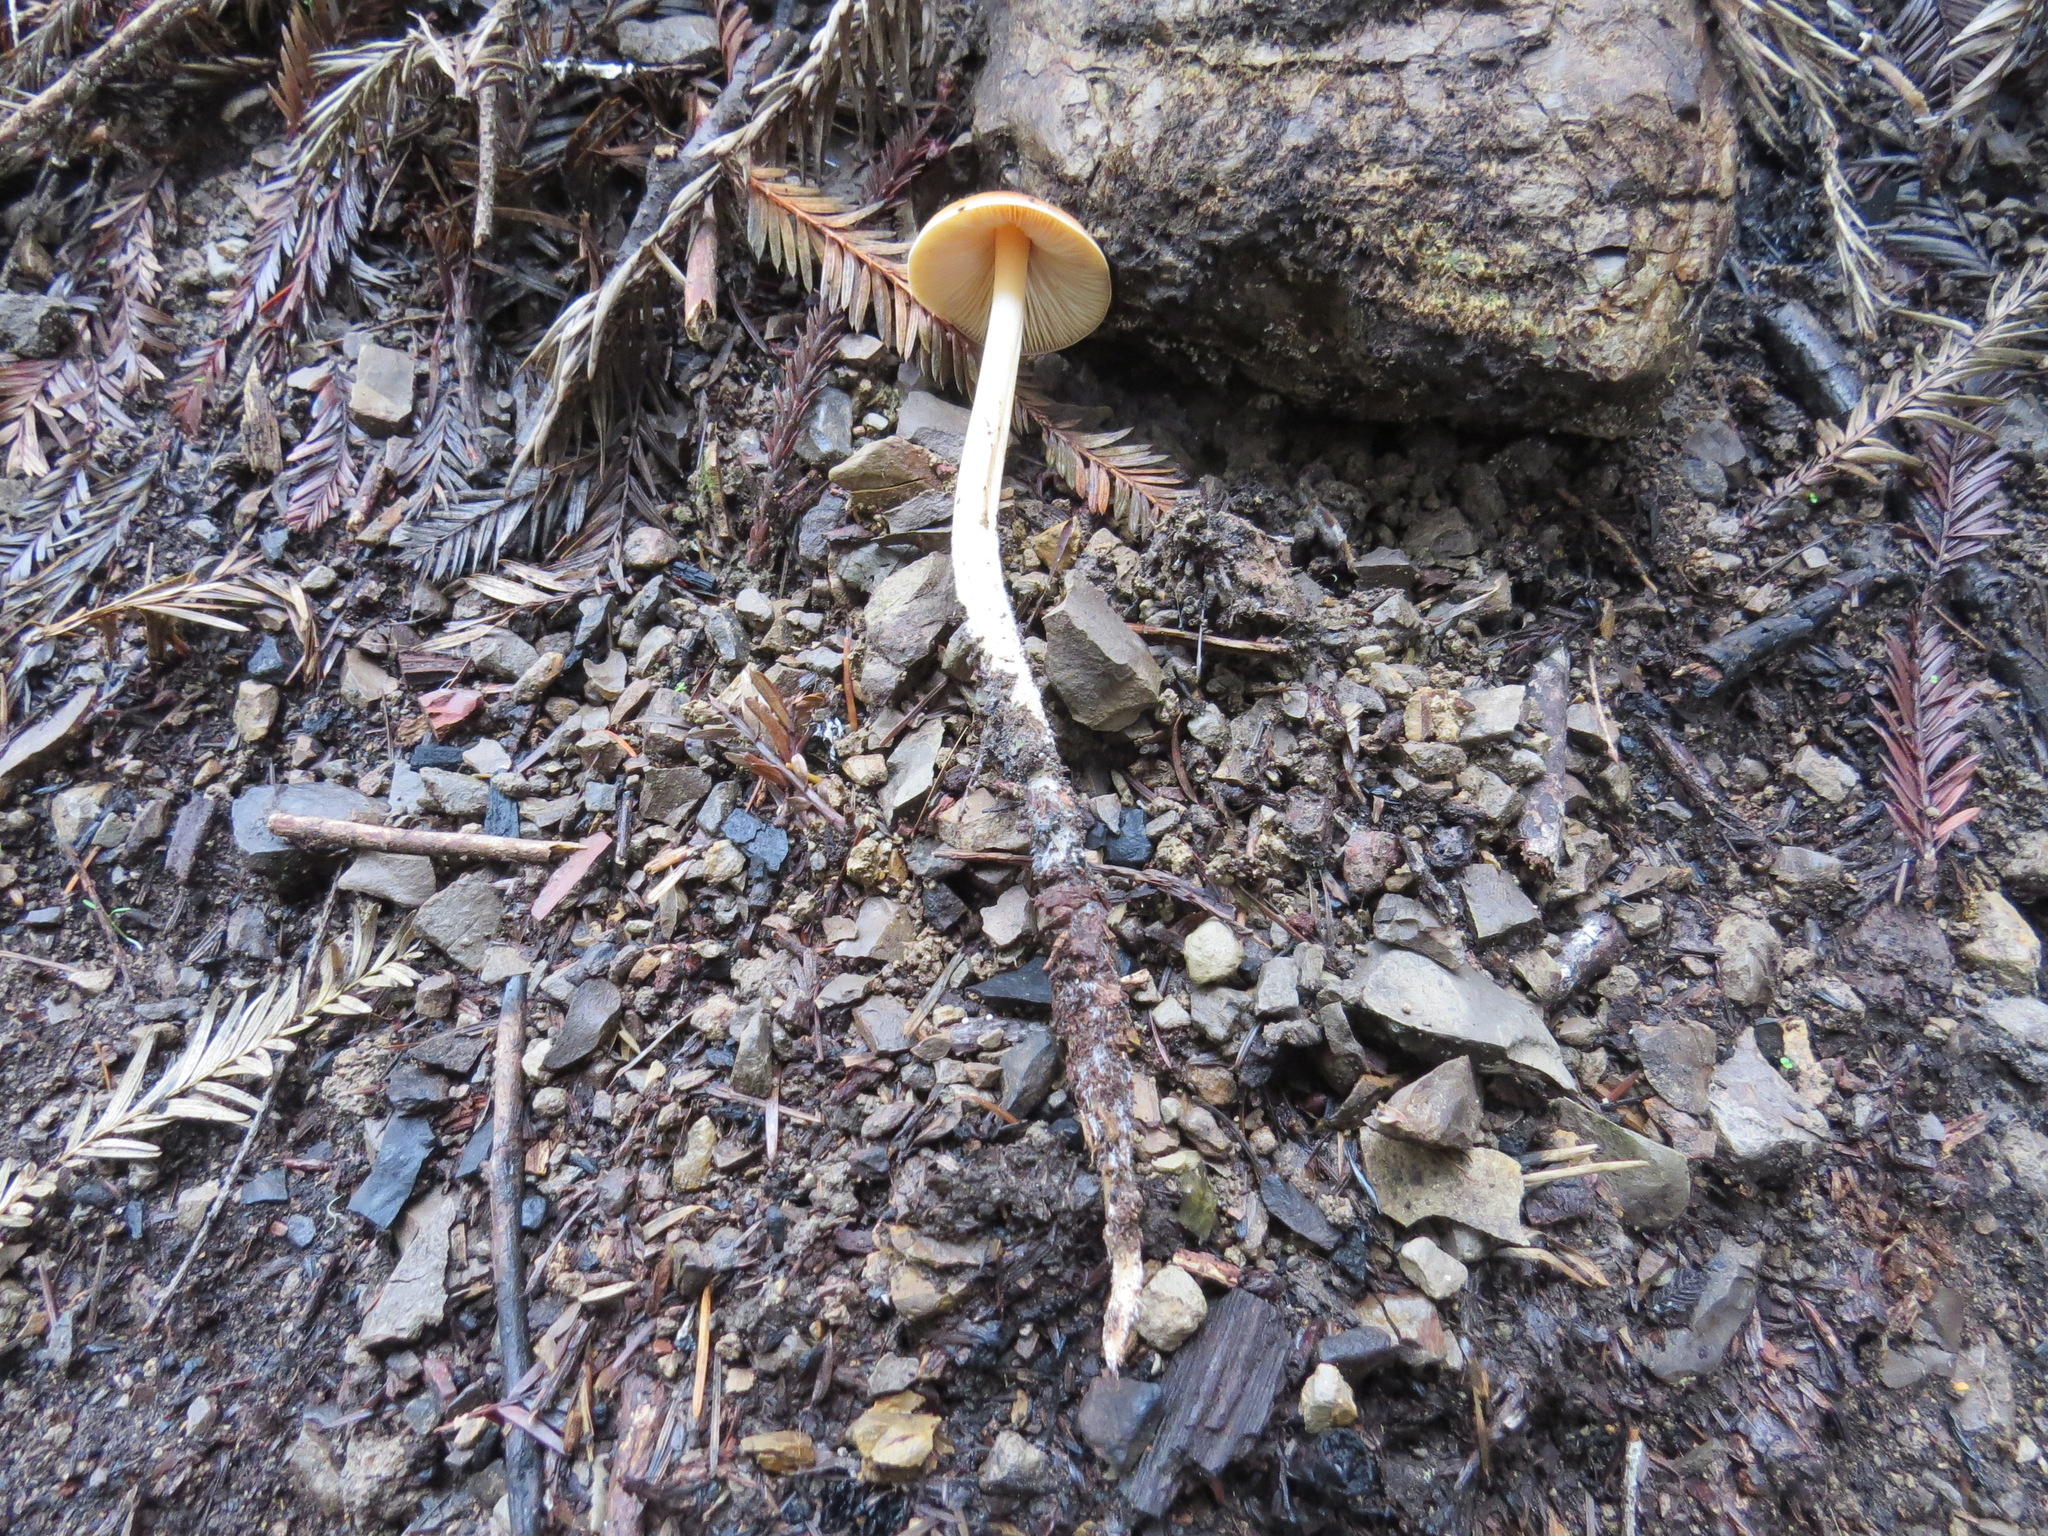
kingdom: Fungi
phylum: Basidiomycota
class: Agaricomycetes
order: Agaricales
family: Tricholomataceae
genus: Caulorhiza
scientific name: Caulorhiza umbonata
